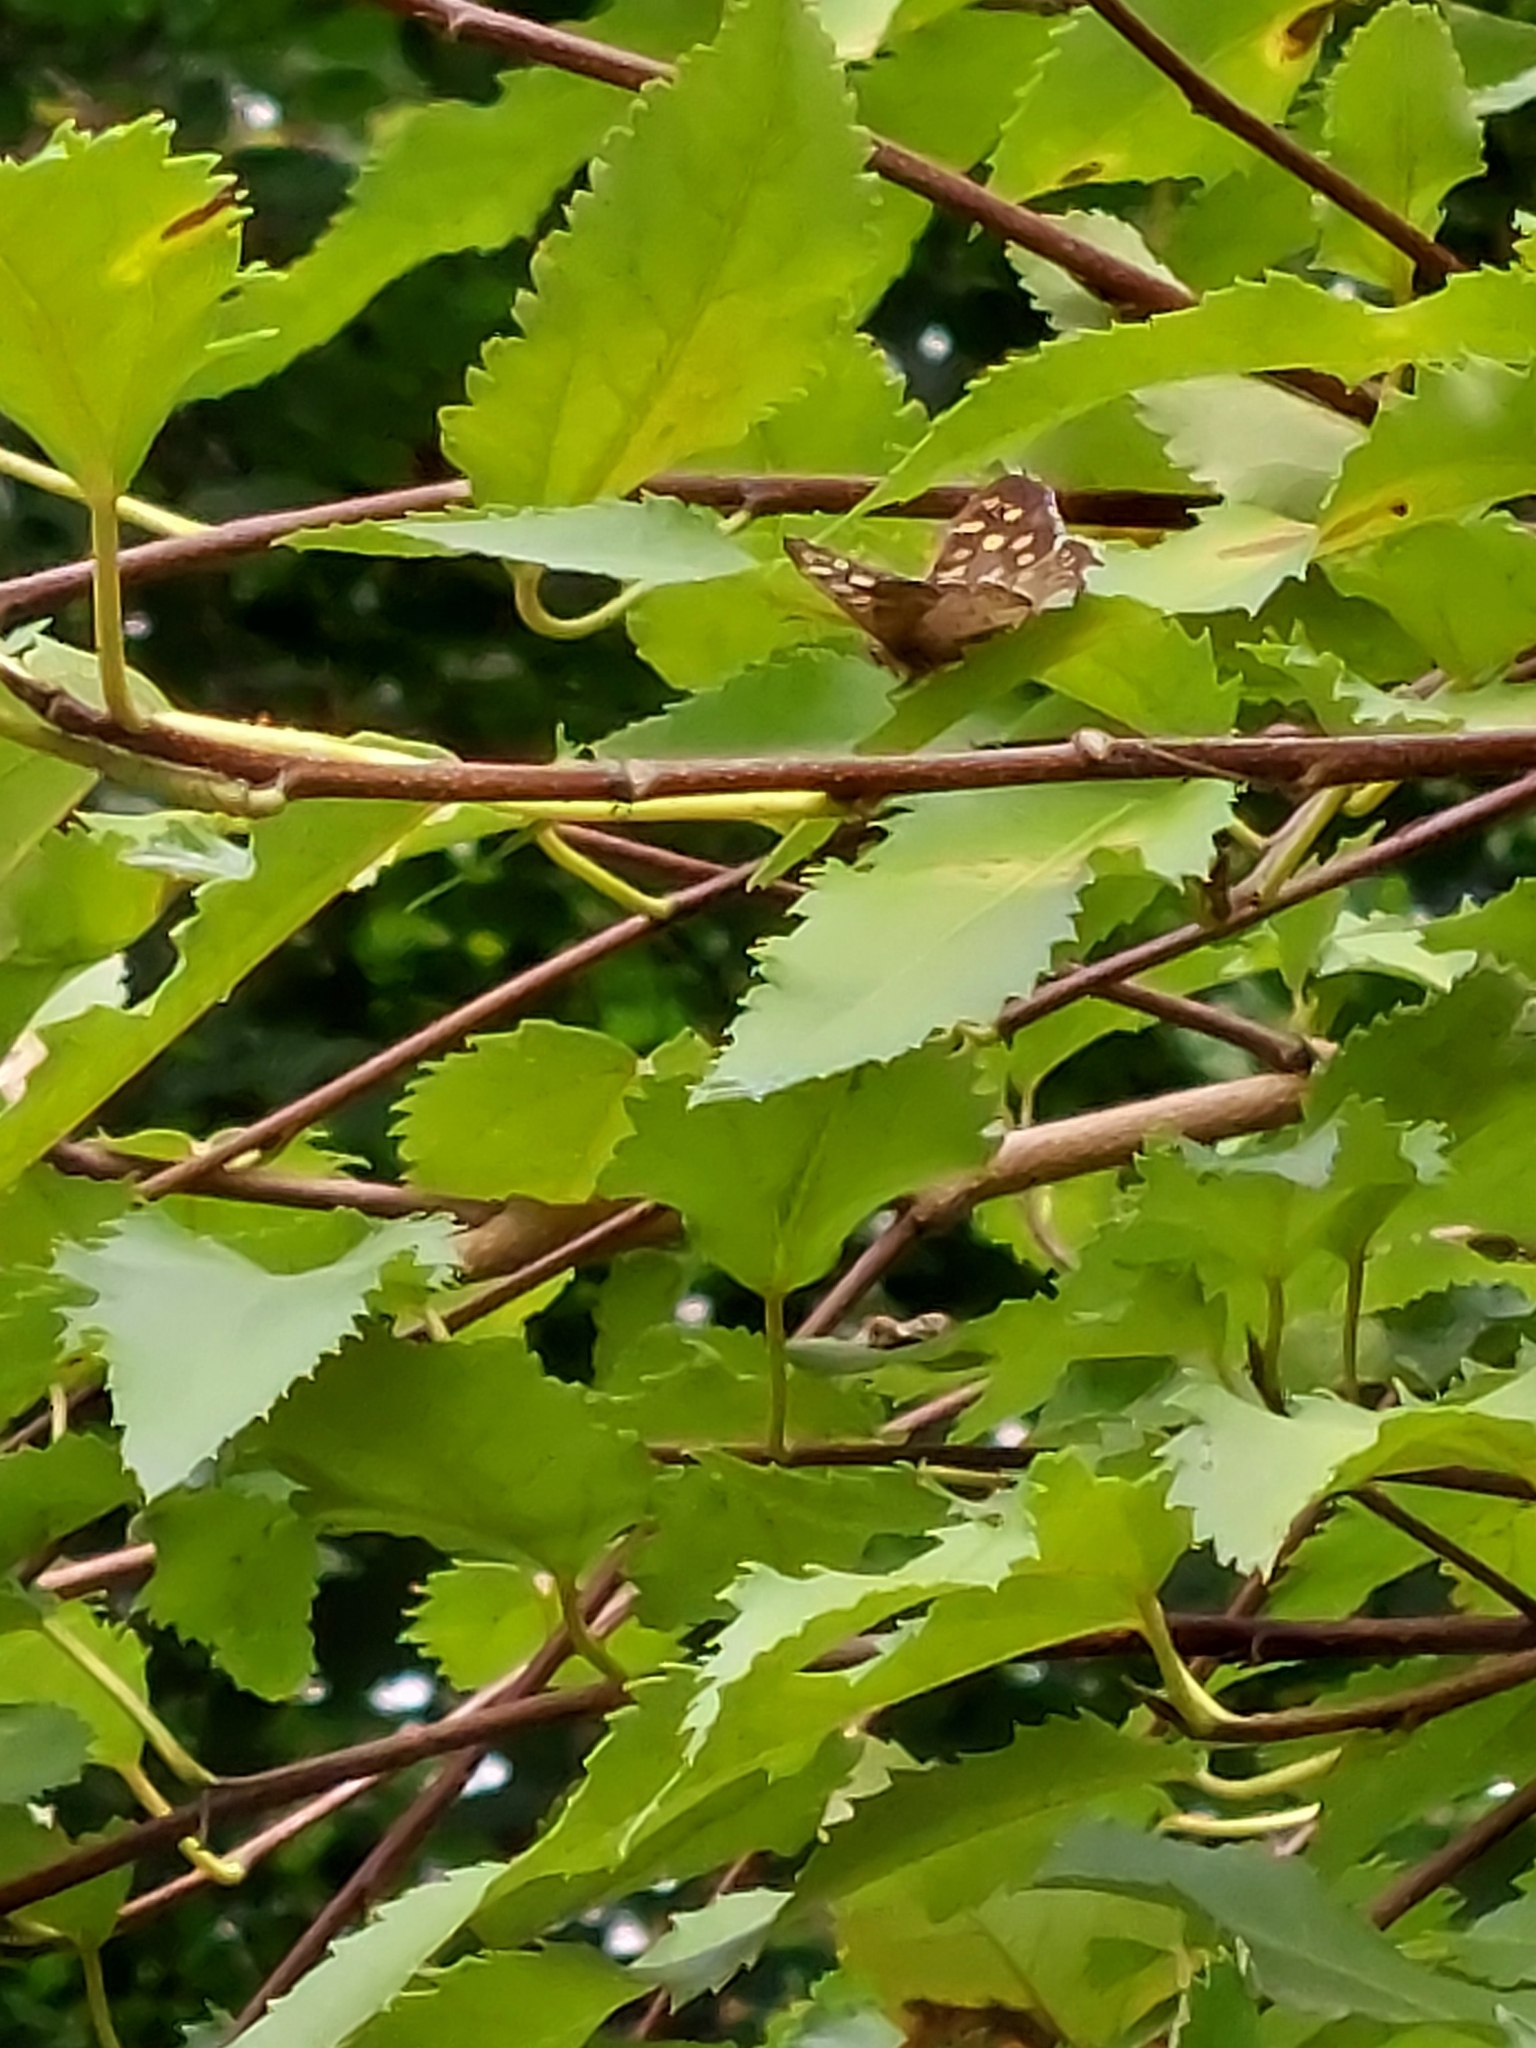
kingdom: Animalia
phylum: Arthropoda
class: Insecta
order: Lepidoptera
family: Nymphalidae
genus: Pararge
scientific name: Pararge aegeria
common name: Speckled wood
